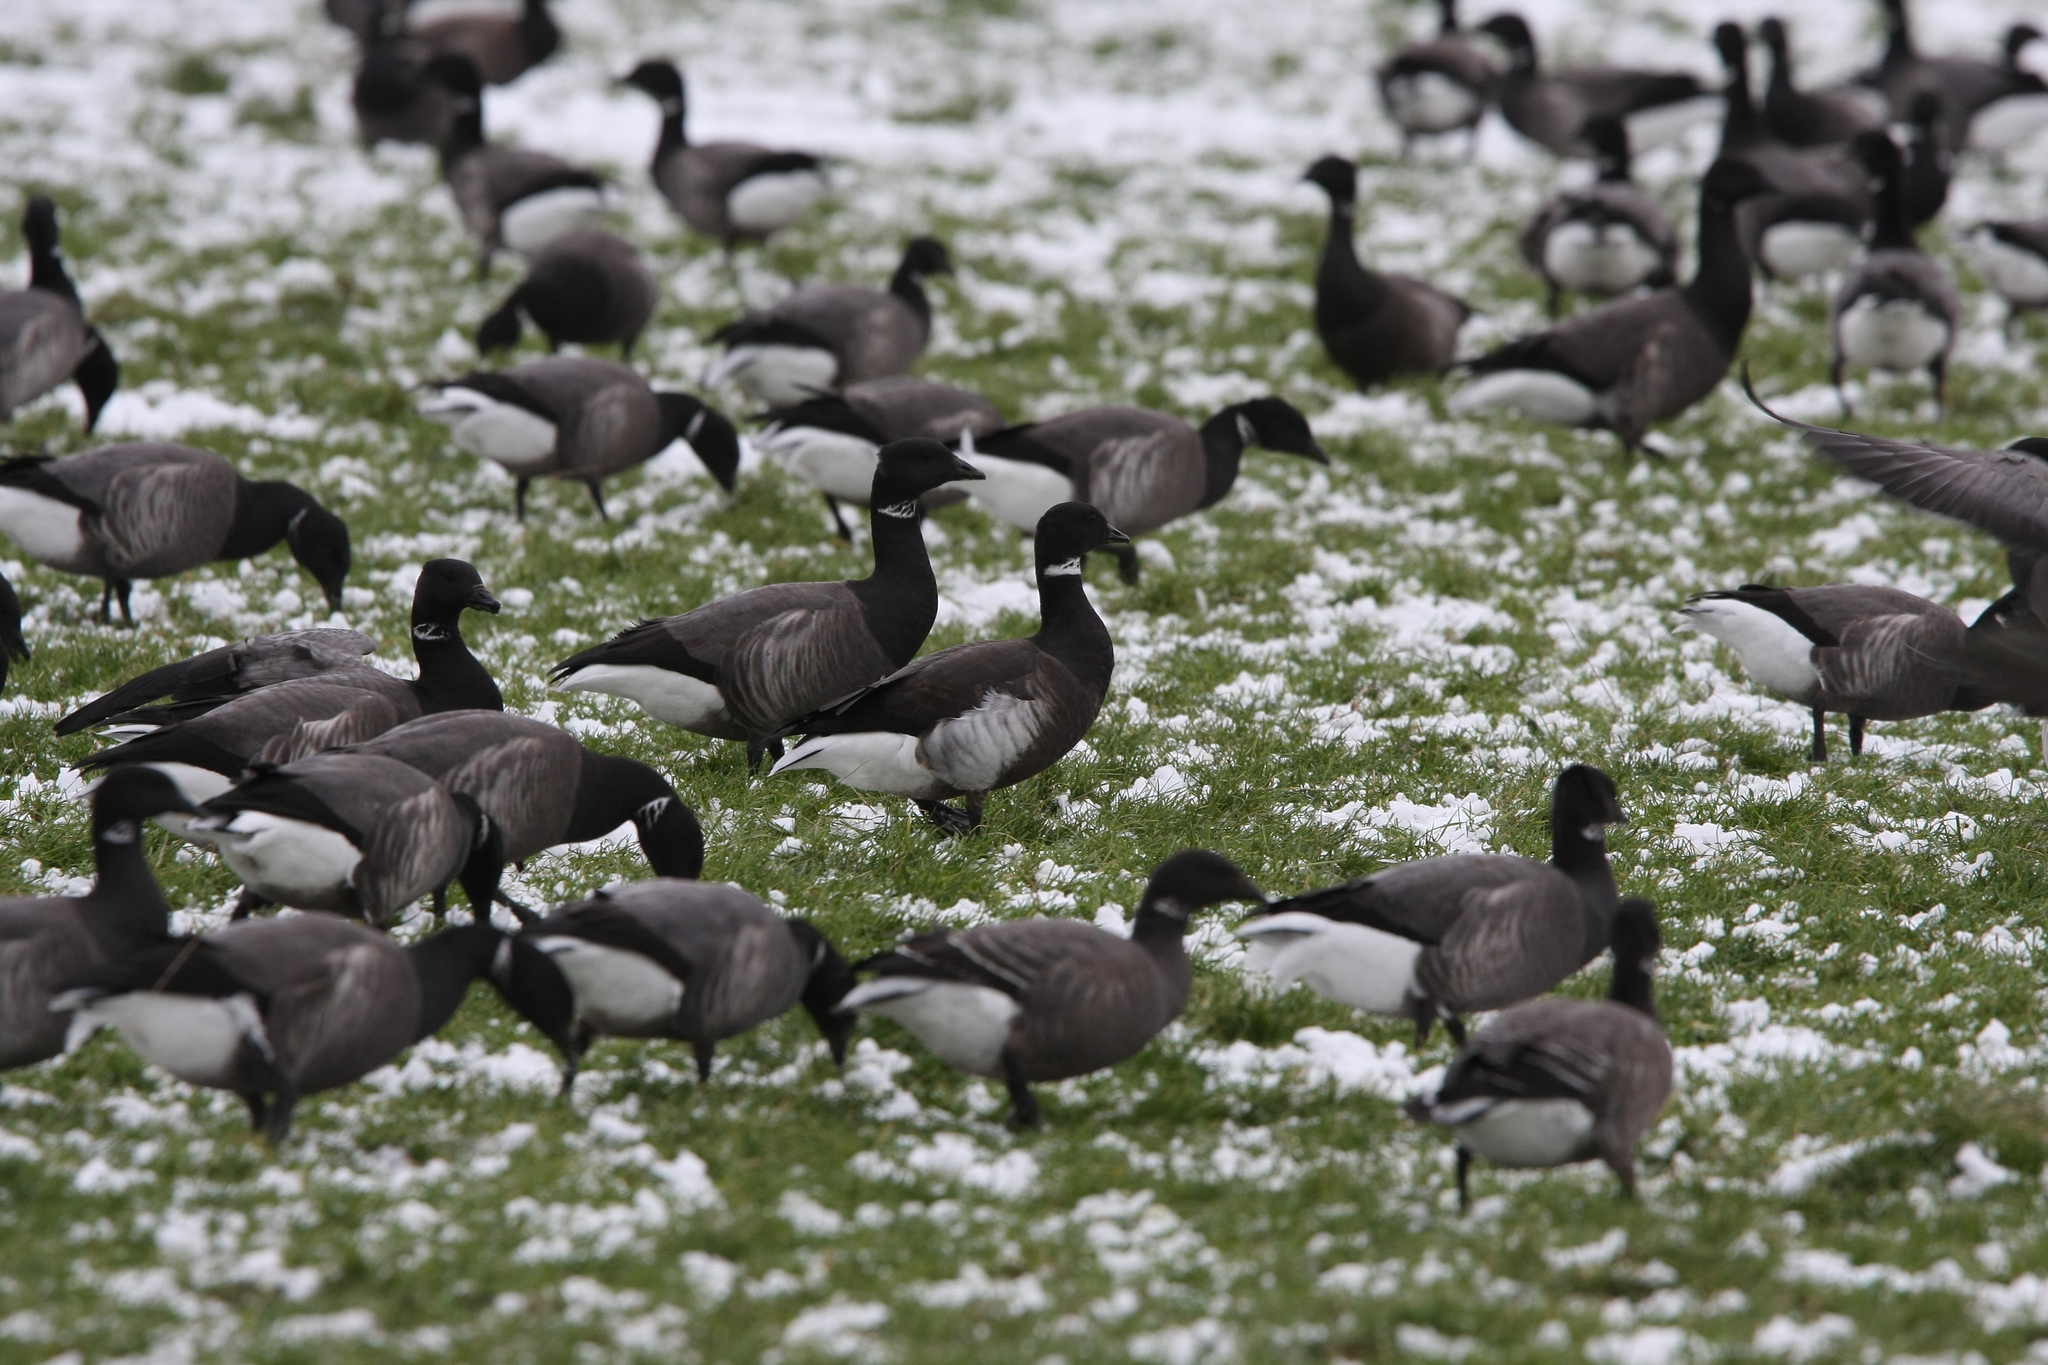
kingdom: Animalia
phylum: Chordata
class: Aves
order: Anseriformes
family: Anatidae
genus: Branta
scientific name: Branta bernicla
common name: Brant goose
